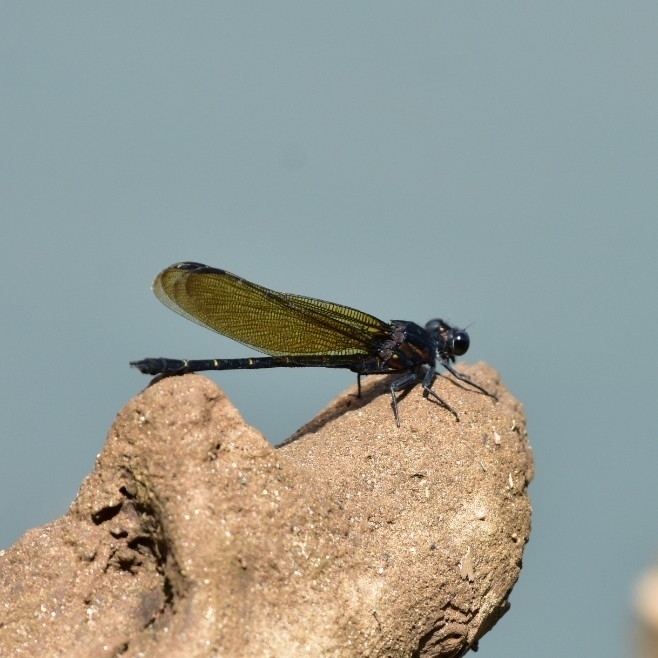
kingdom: Animalia
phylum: Arthropoda
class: Insecta
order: Odonata
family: Euphaeidae
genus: Dysphaea
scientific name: Dysphaea ethela
